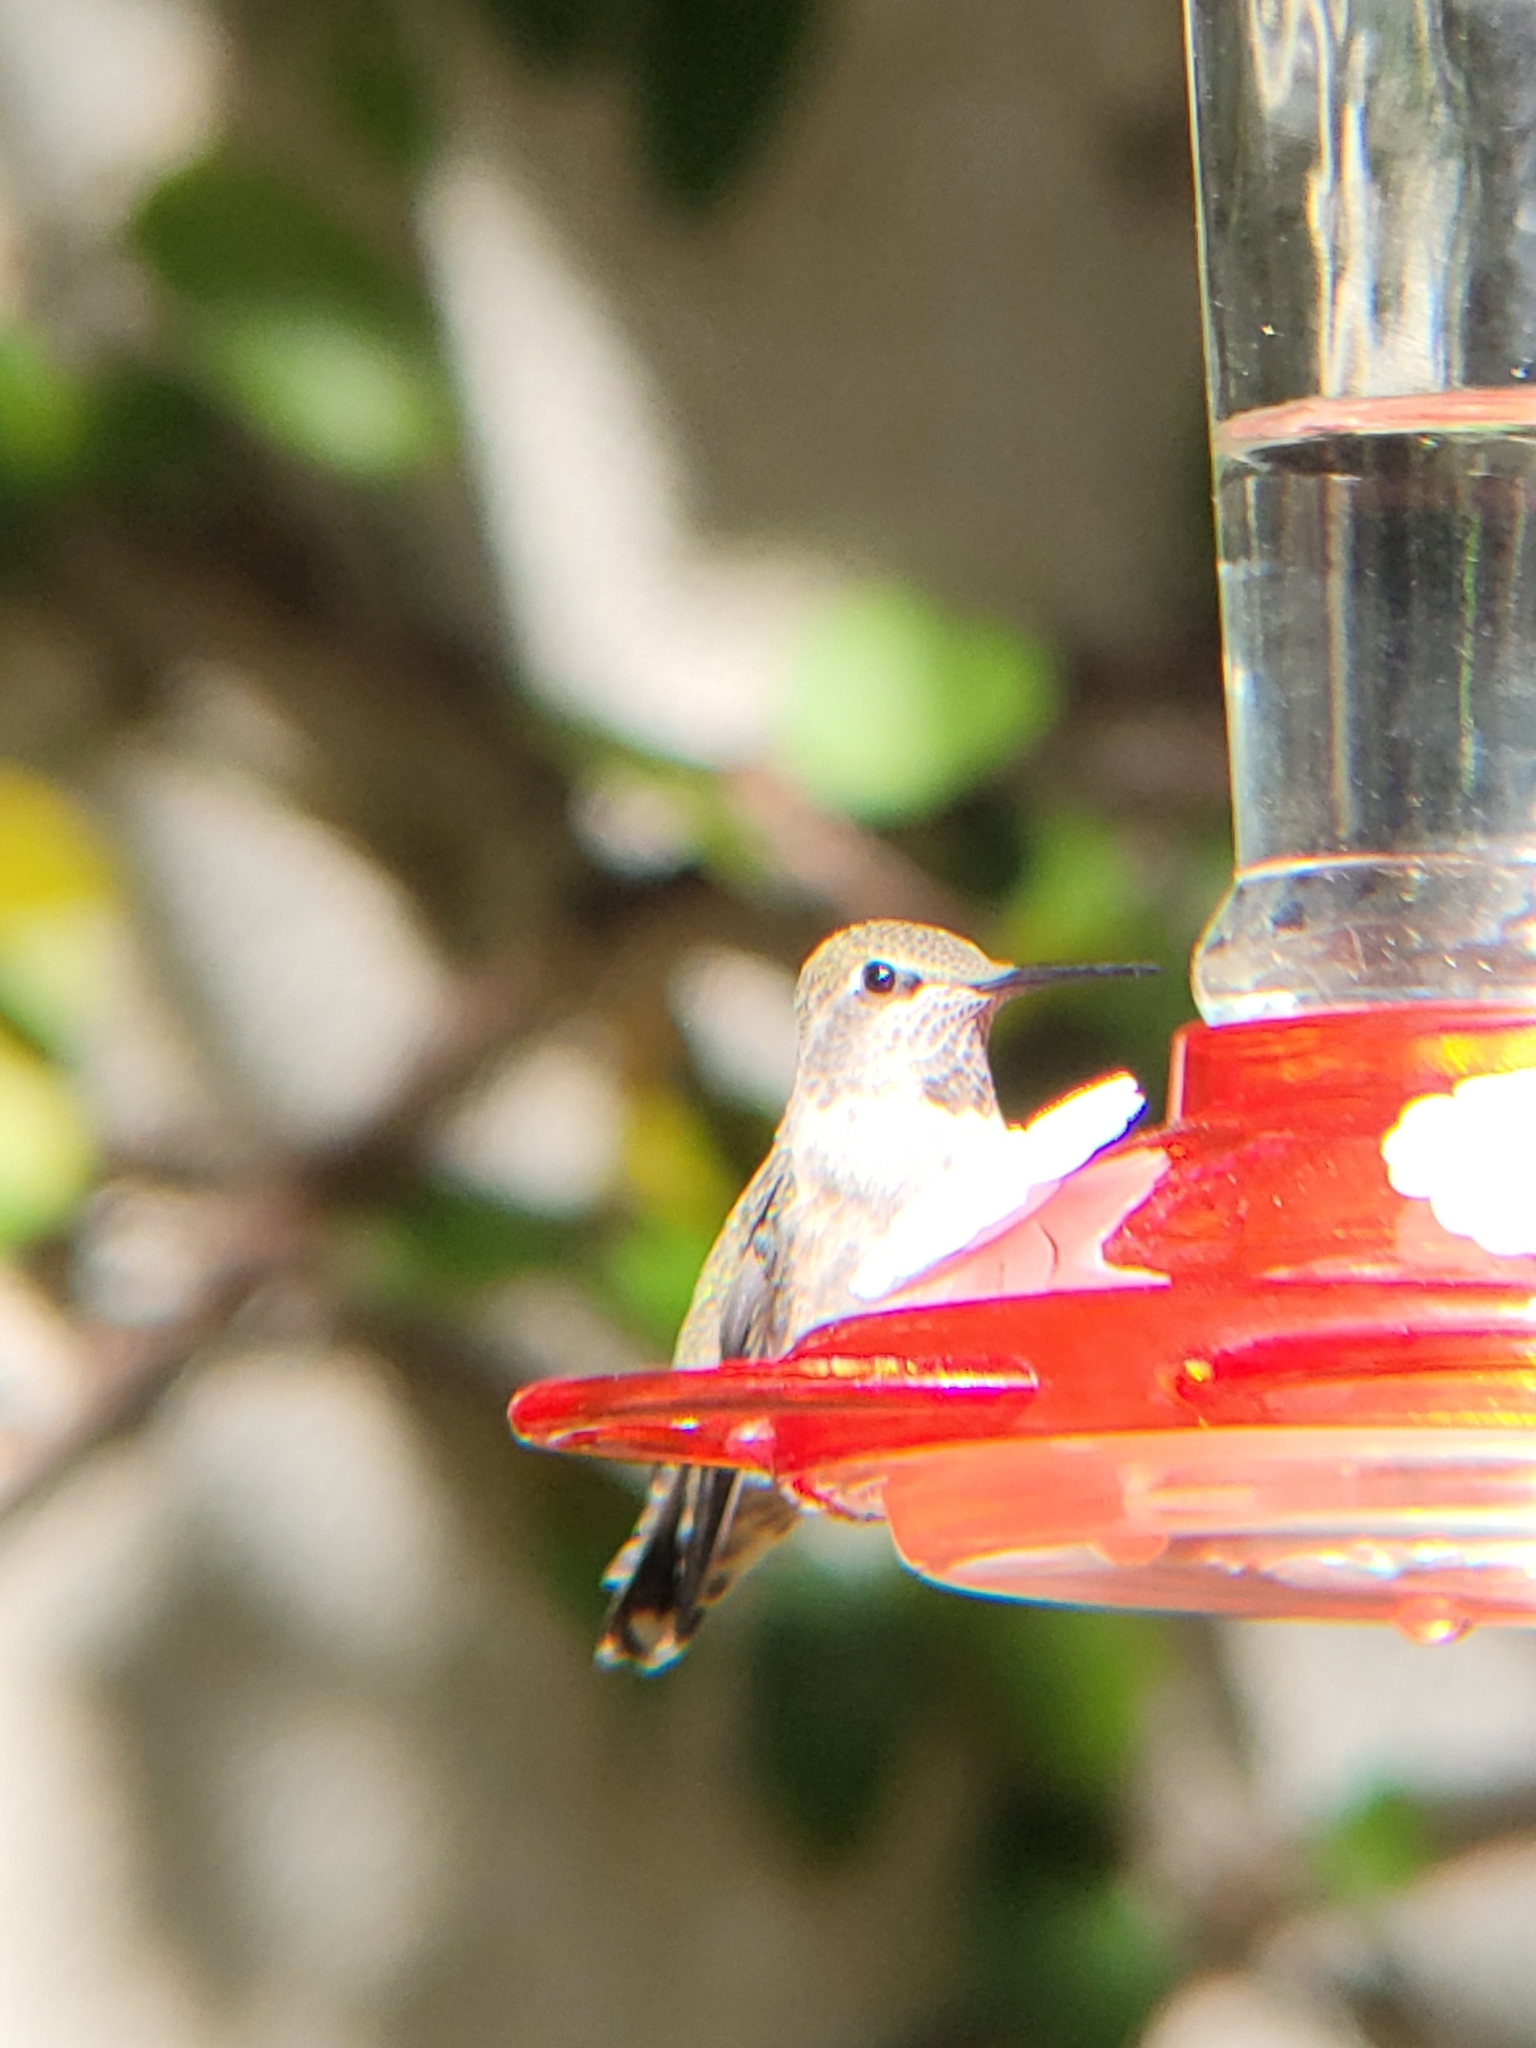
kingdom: Animalia
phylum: Chordata
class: Aves
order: Apodiformes
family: Trochilidae
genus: Calypte
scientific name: Calypte anna
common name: Anna's hummingbird
